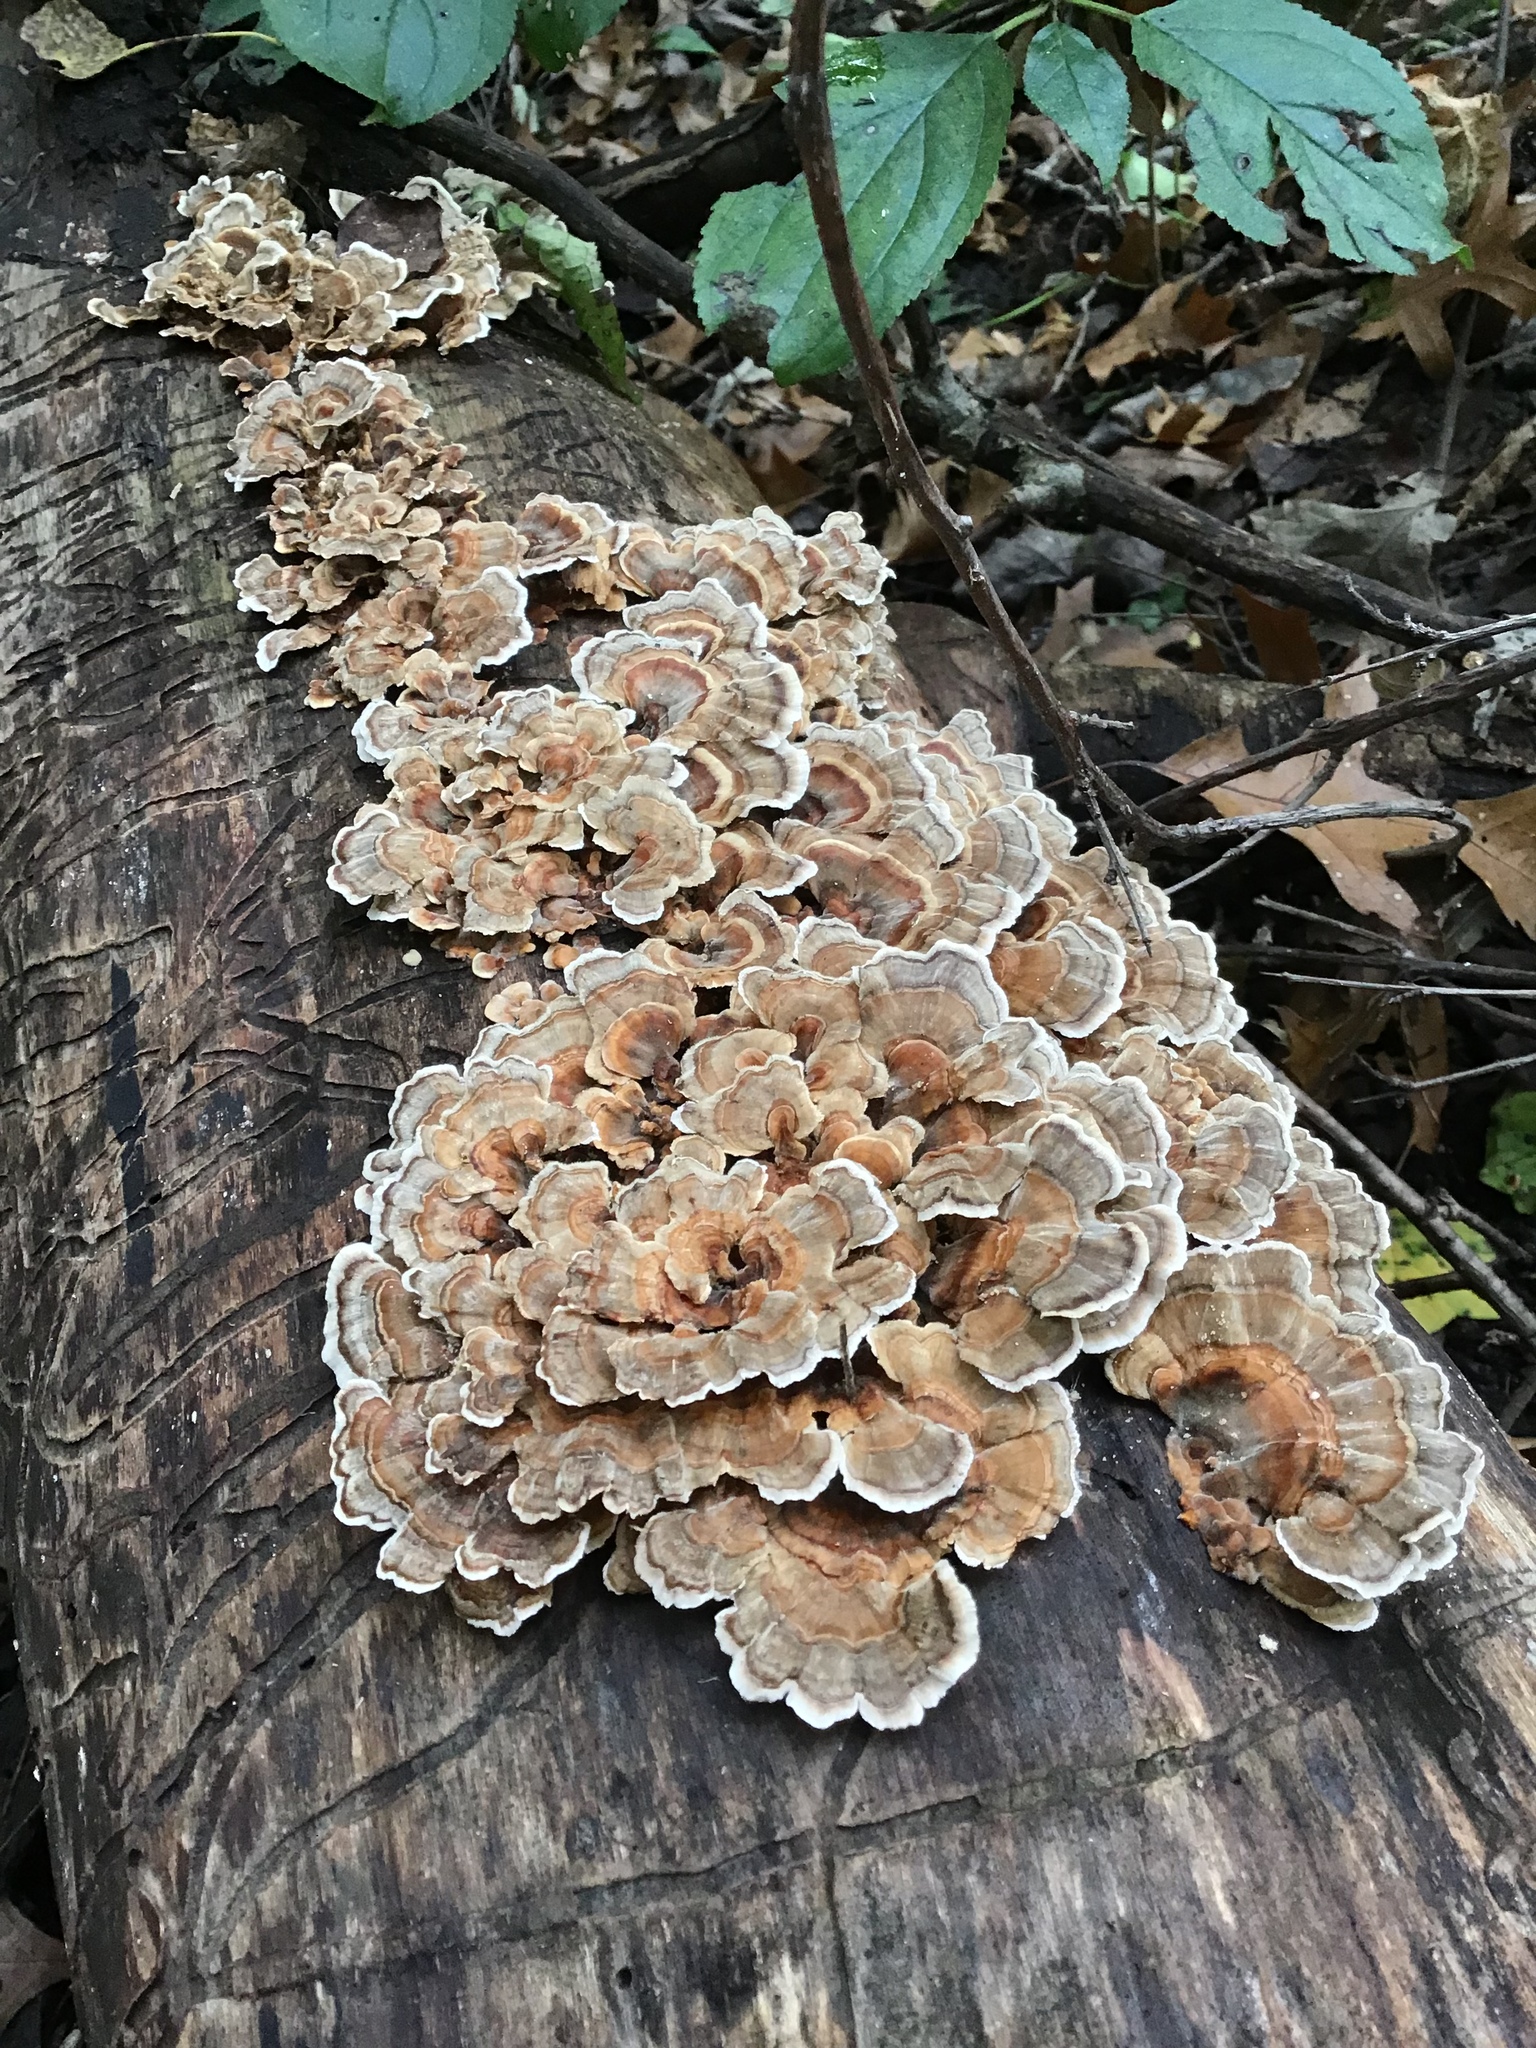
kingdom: Fungi
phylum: Basidiomycota
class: Agaricomycetes
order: Polyporales
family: Polyporaceae
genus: Trametes
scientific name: Trametes versicolor
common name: Turkeytail
